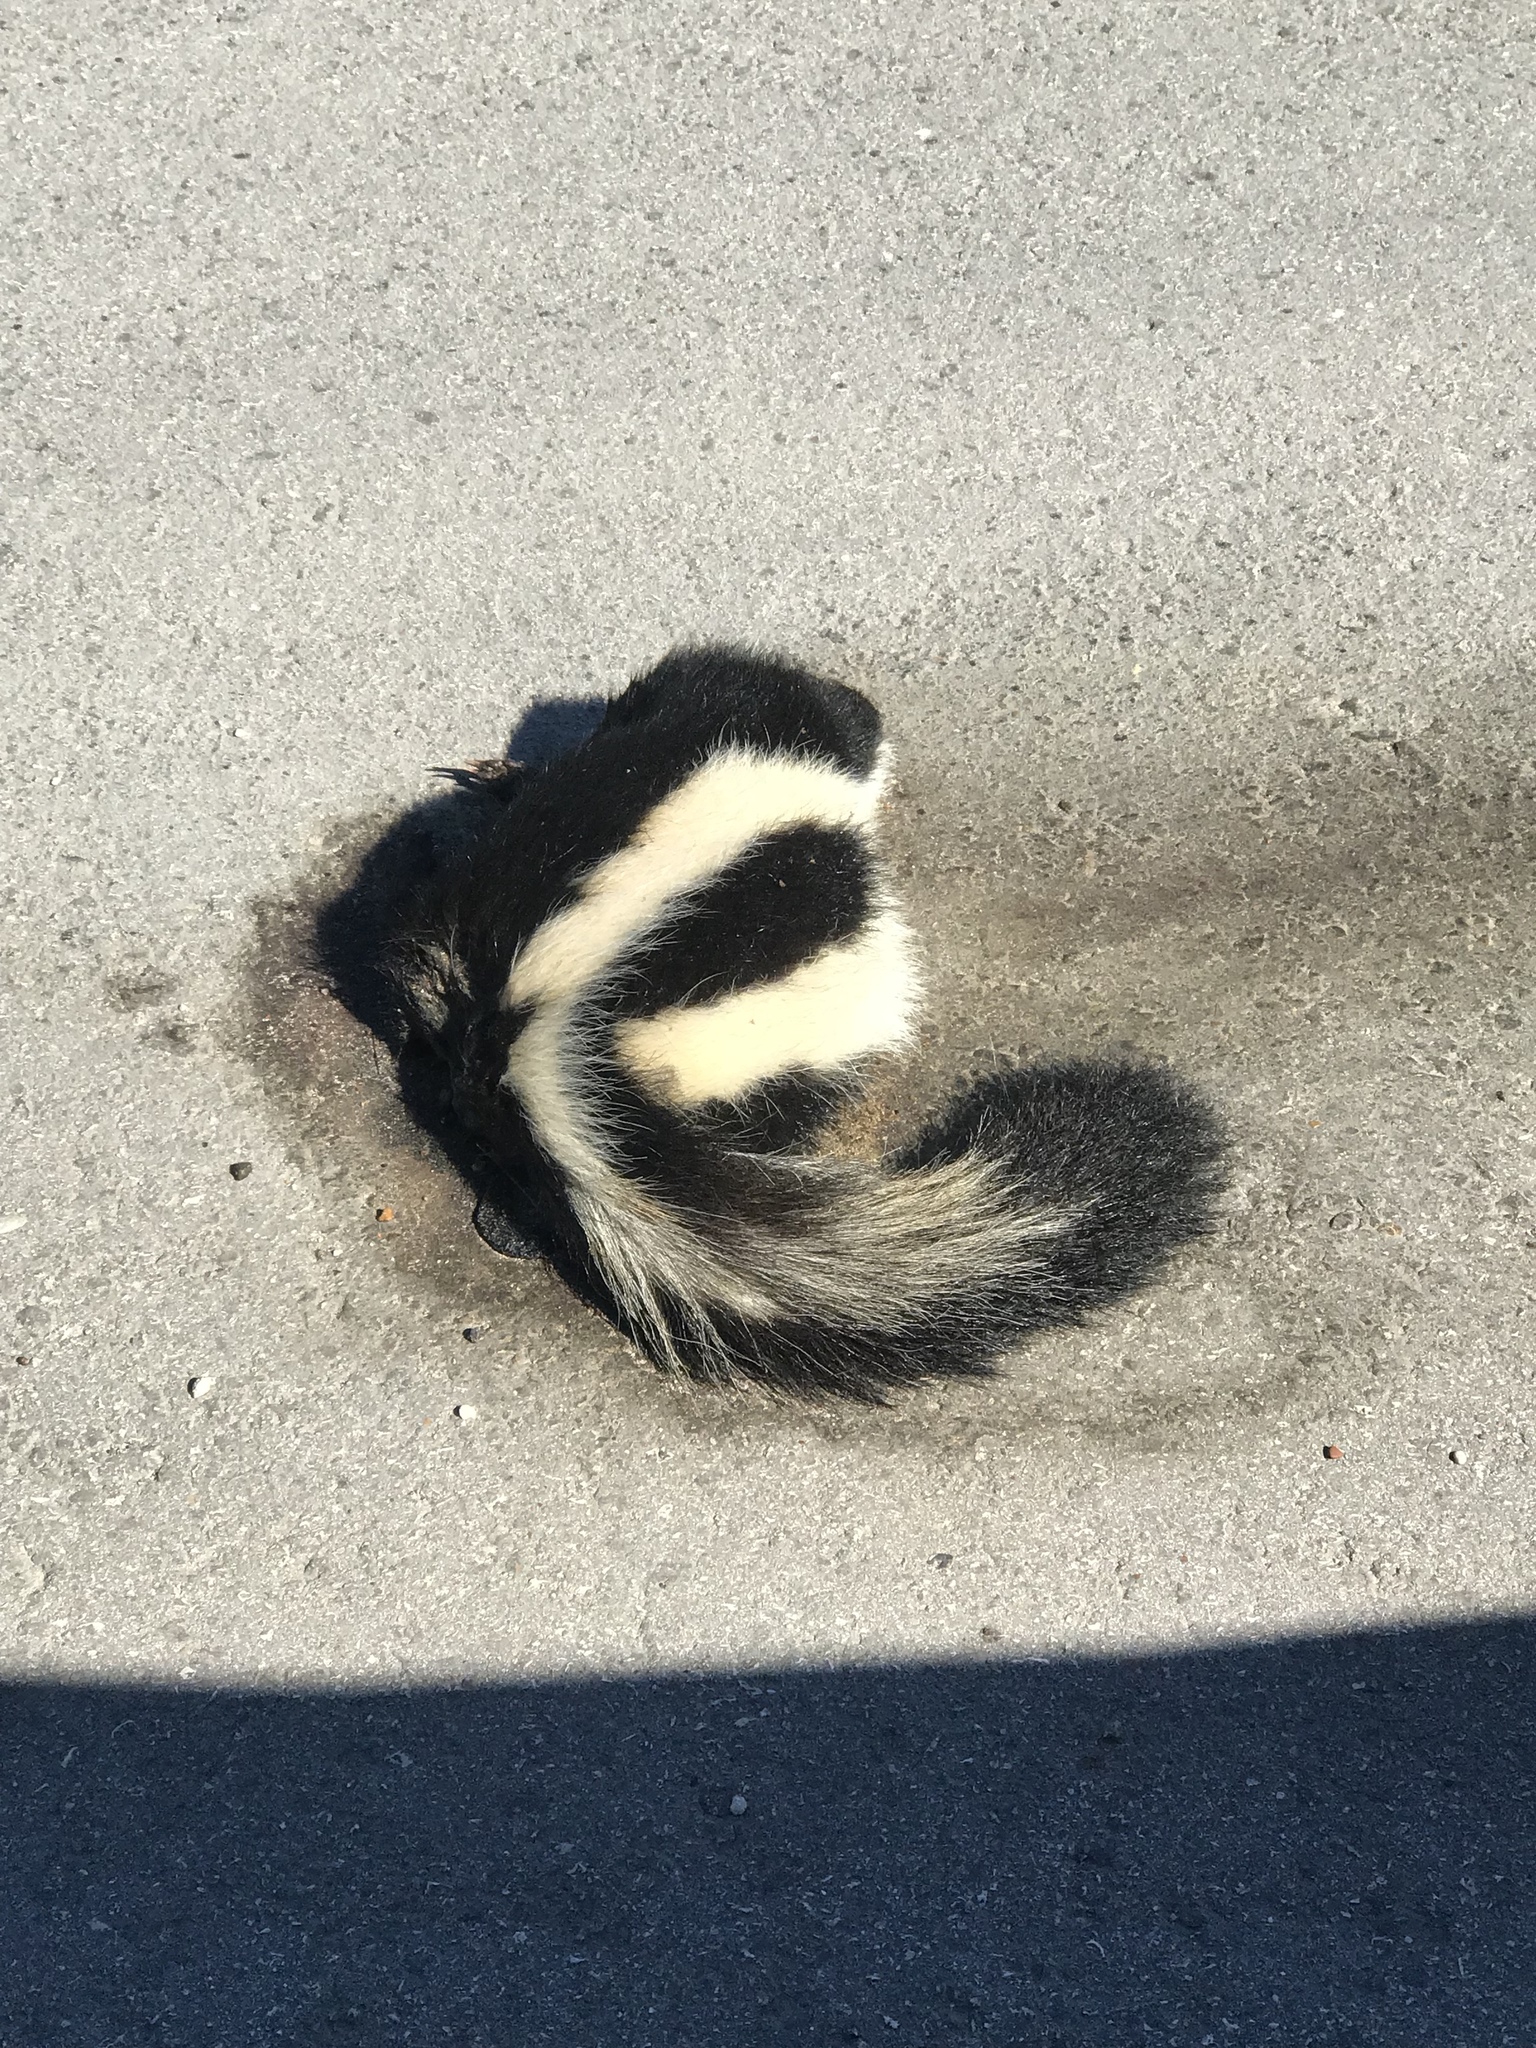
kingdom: Animalia
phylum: Chordata
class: Mammalia
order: Carnivora
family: Mephitidae
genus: Mephitis
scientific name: Mephitis mephitis
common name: Striped skunk
